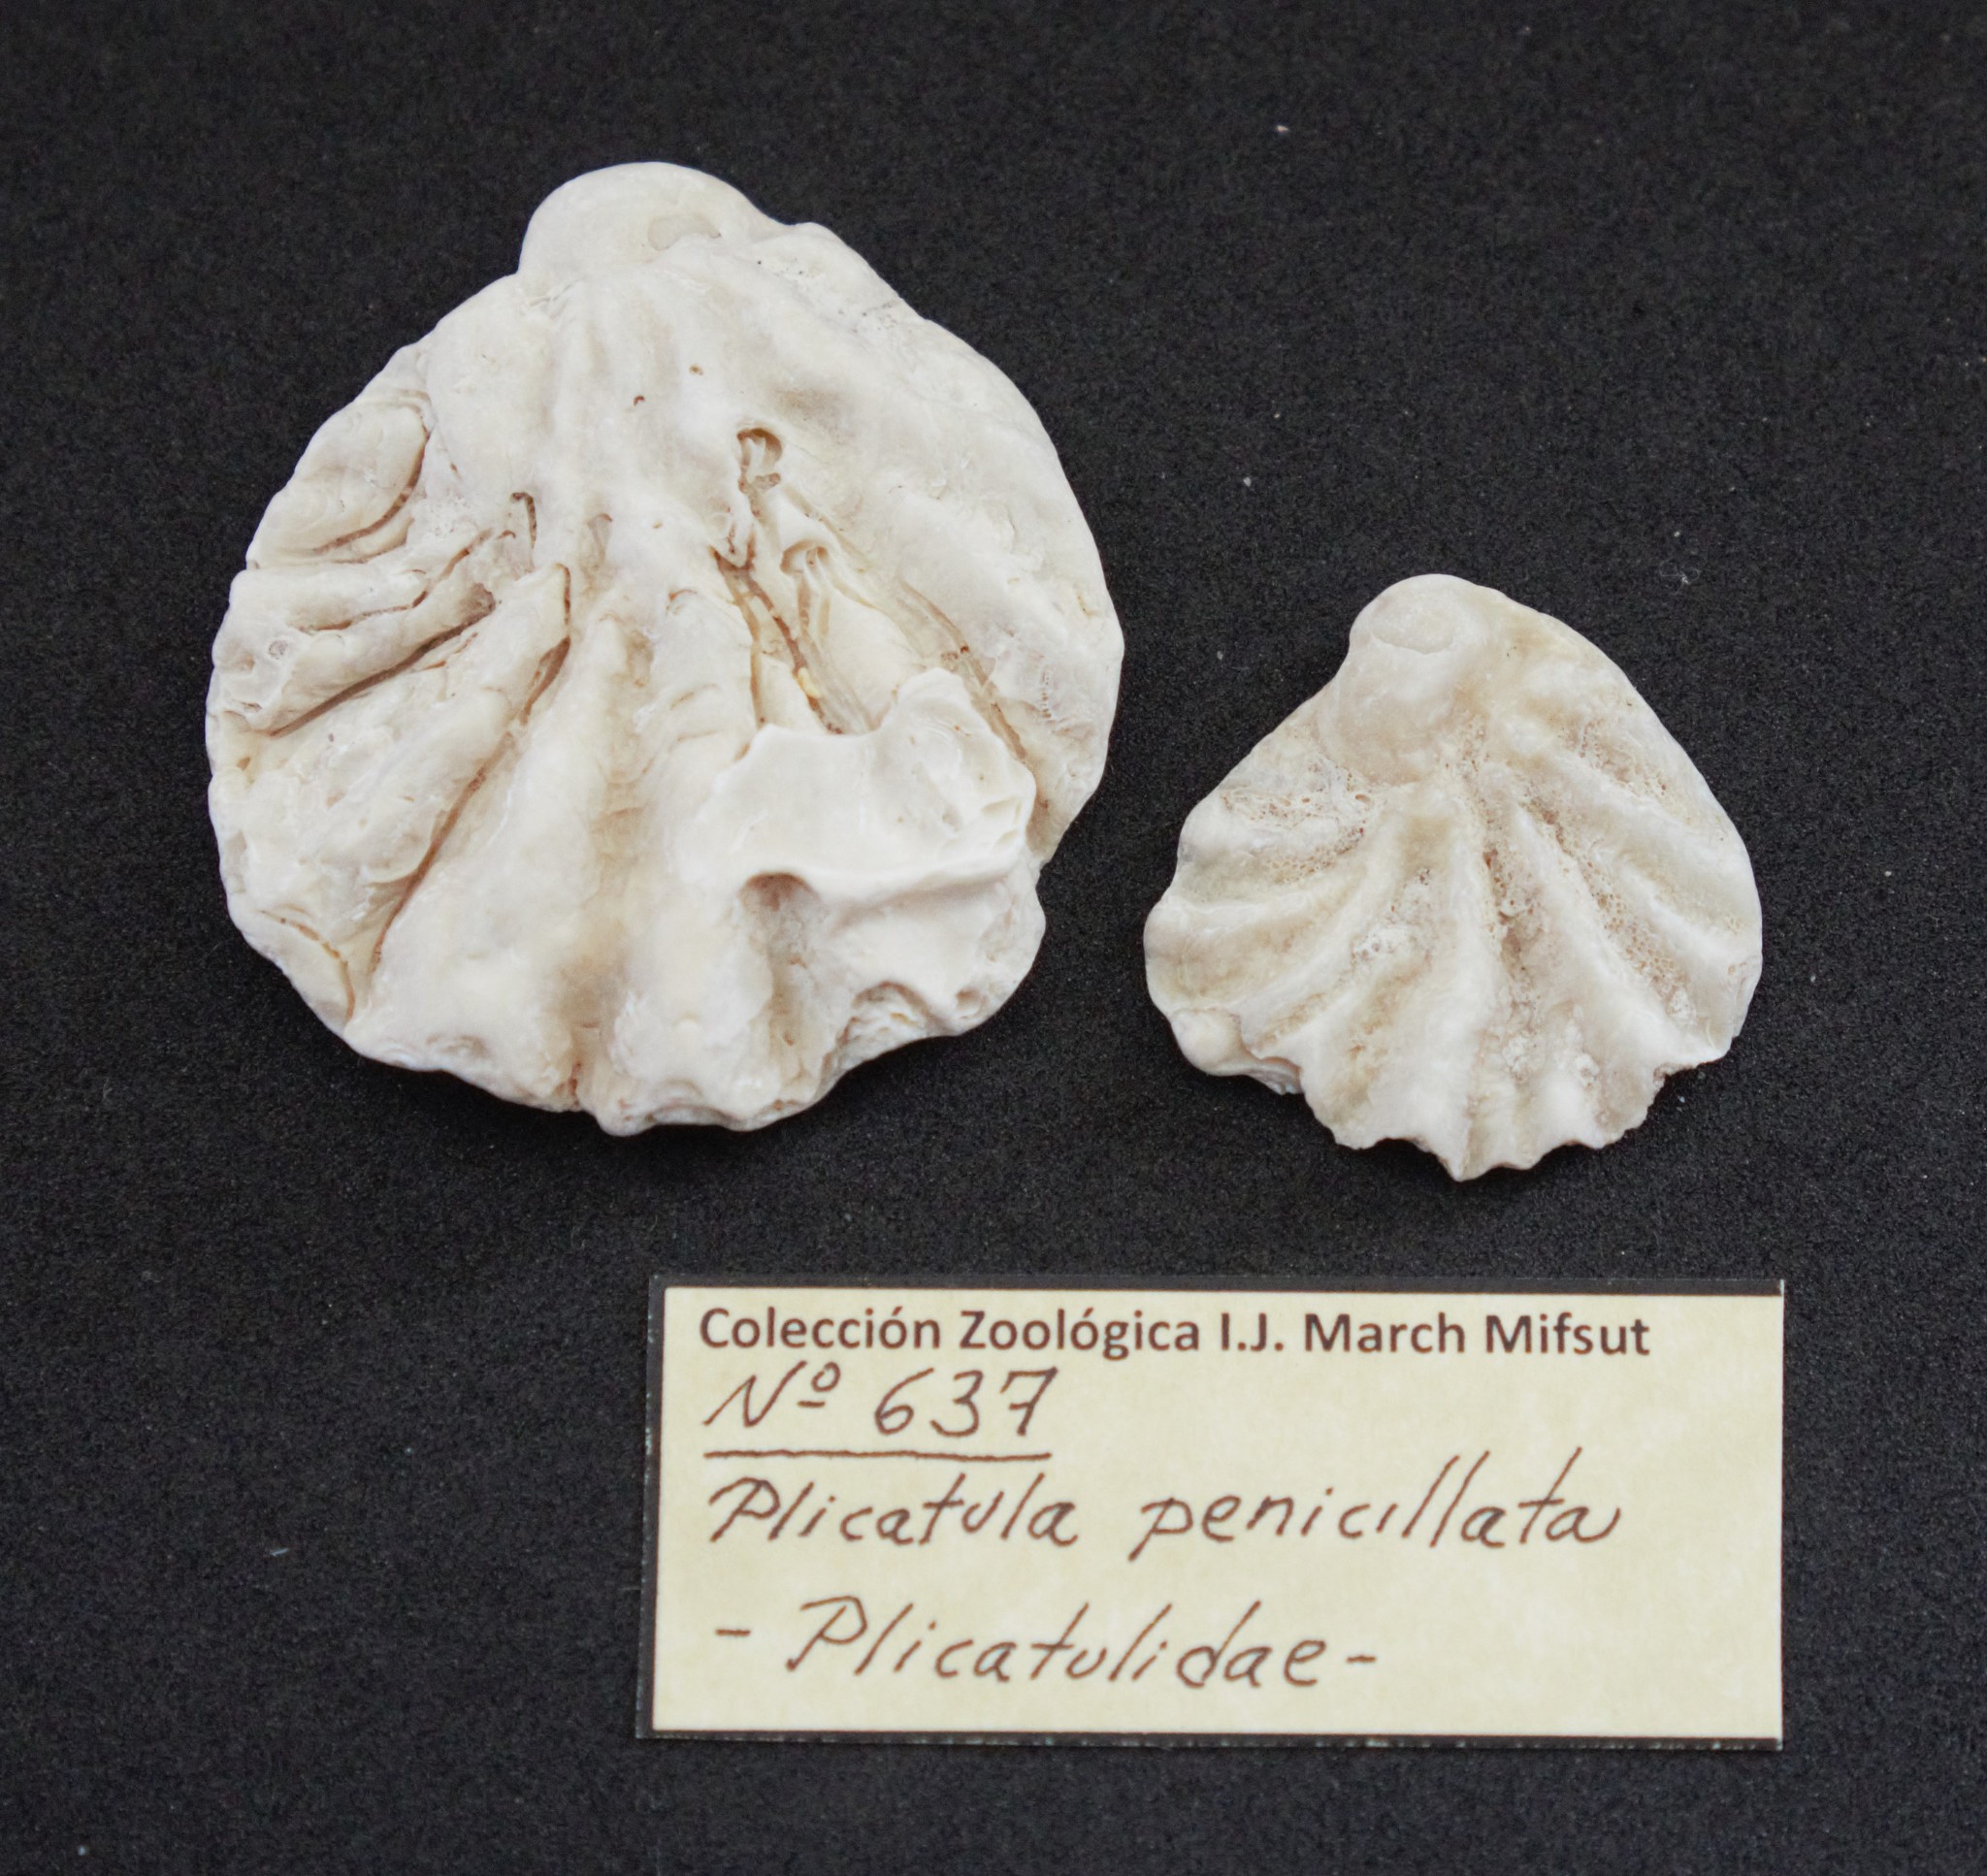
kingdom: Animalia
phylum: Mollusca
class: Bivalvia
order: Pectinida
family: Plicatulidae
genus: Plicatula
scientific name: Plicatula penicillata
